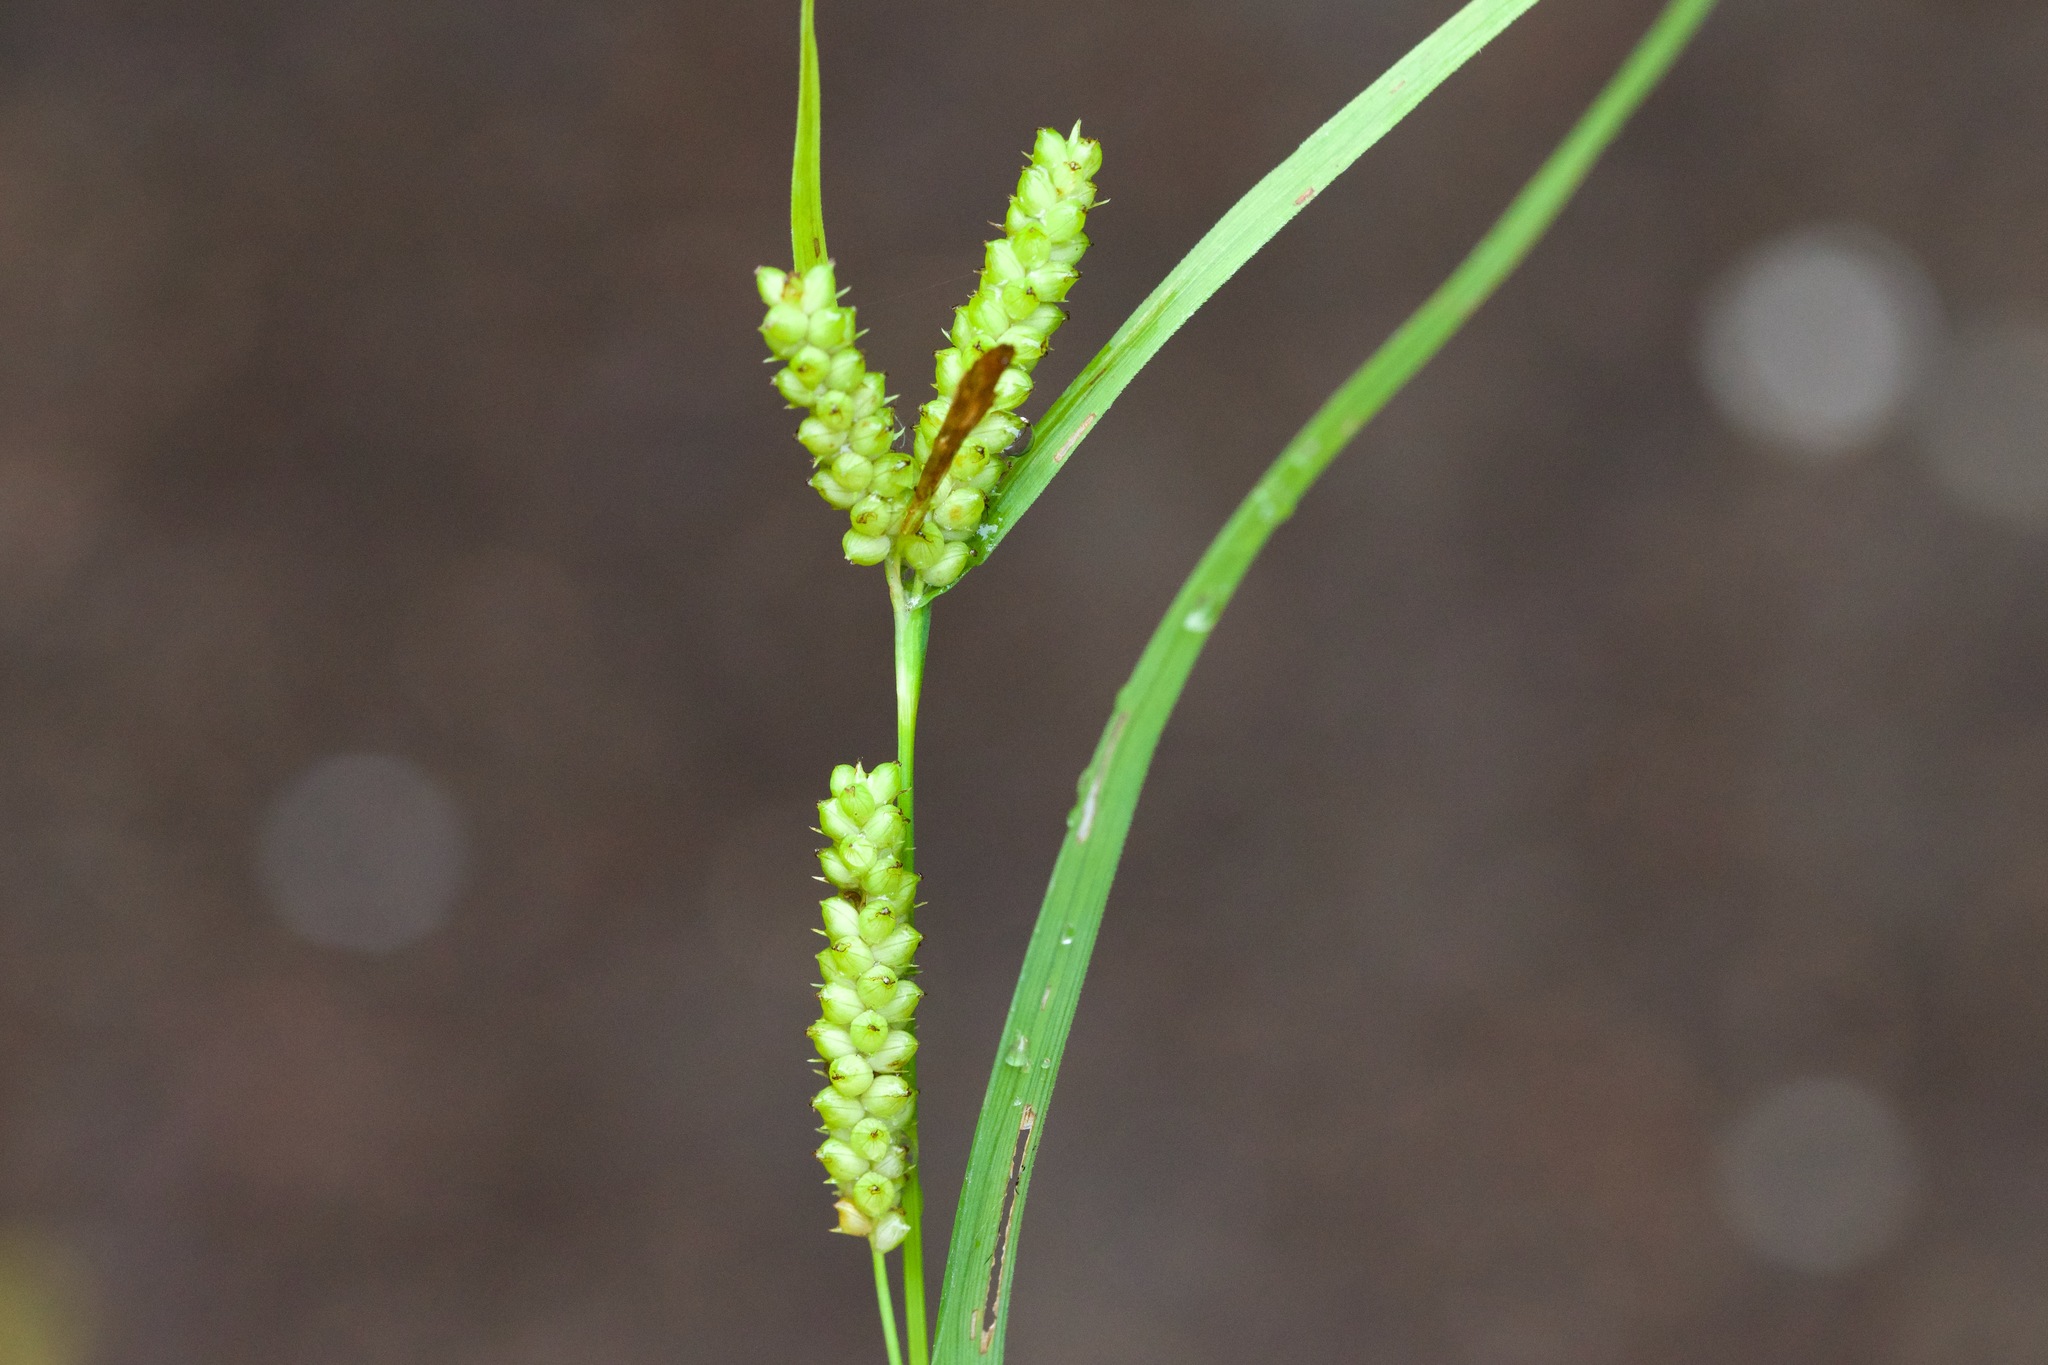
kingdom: Plantae
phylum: Tracheophyta
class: Liliopsida
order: Poales
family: Cyperaceae
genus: Carex
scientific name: Carex granularis
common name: Granular sedge
